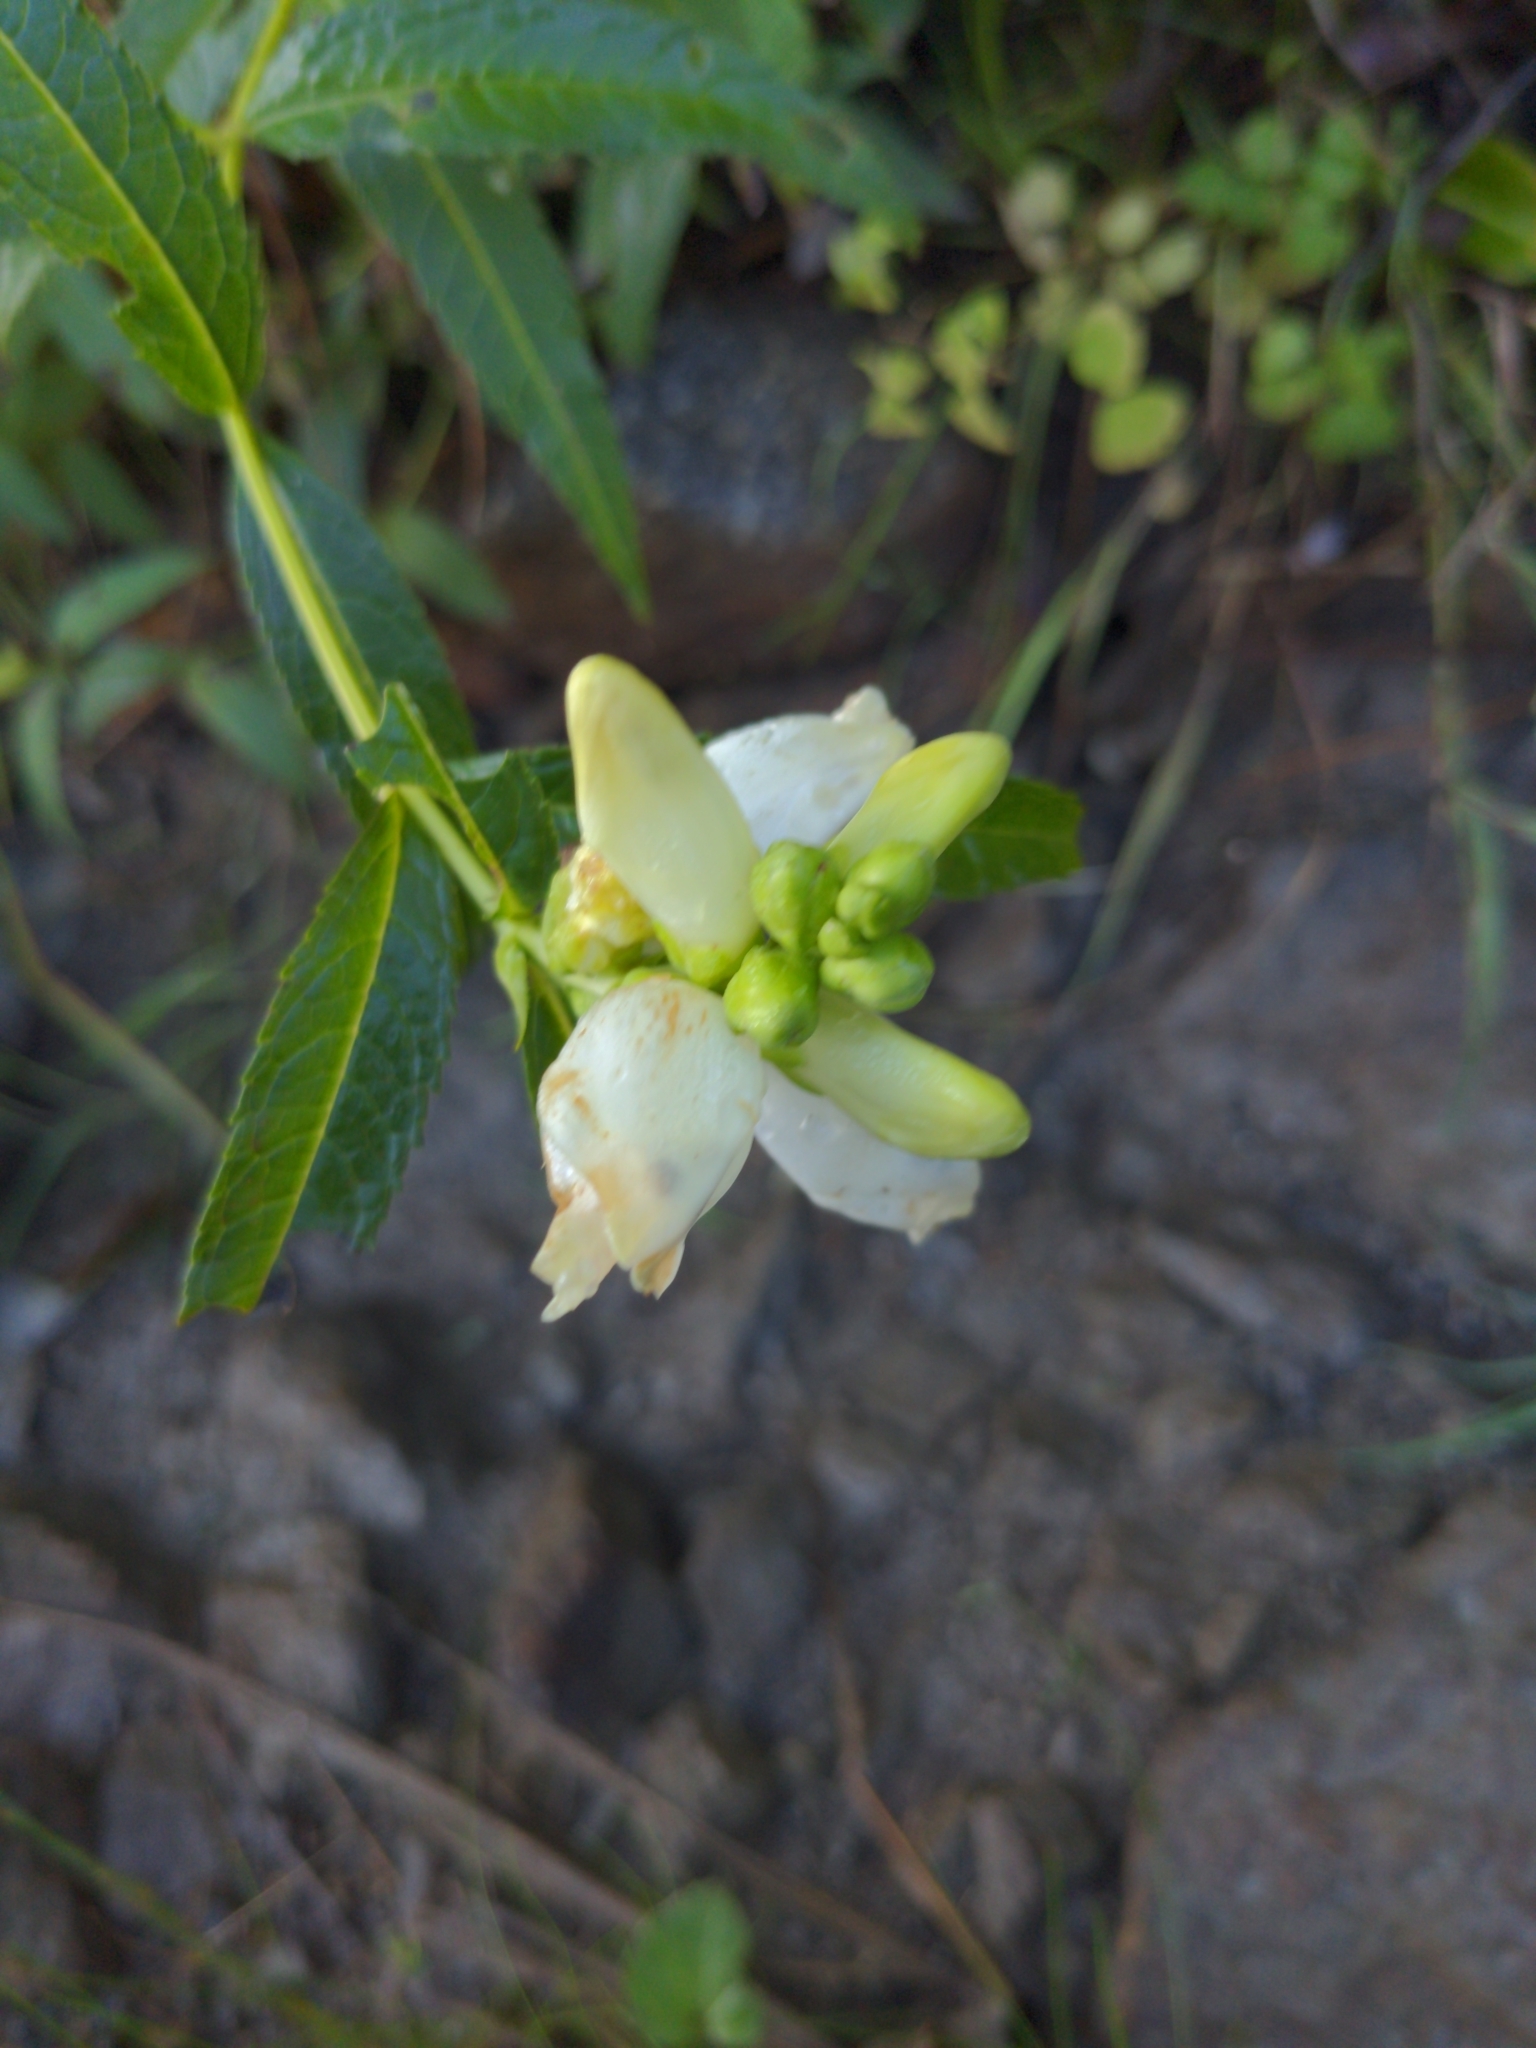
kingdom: Plantae
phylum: Tracheophyta
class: Magnoliopsida
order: Lamiales
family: Plantaginaceae
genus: Chelone
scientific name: Chelone glabra
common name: Snakehead
